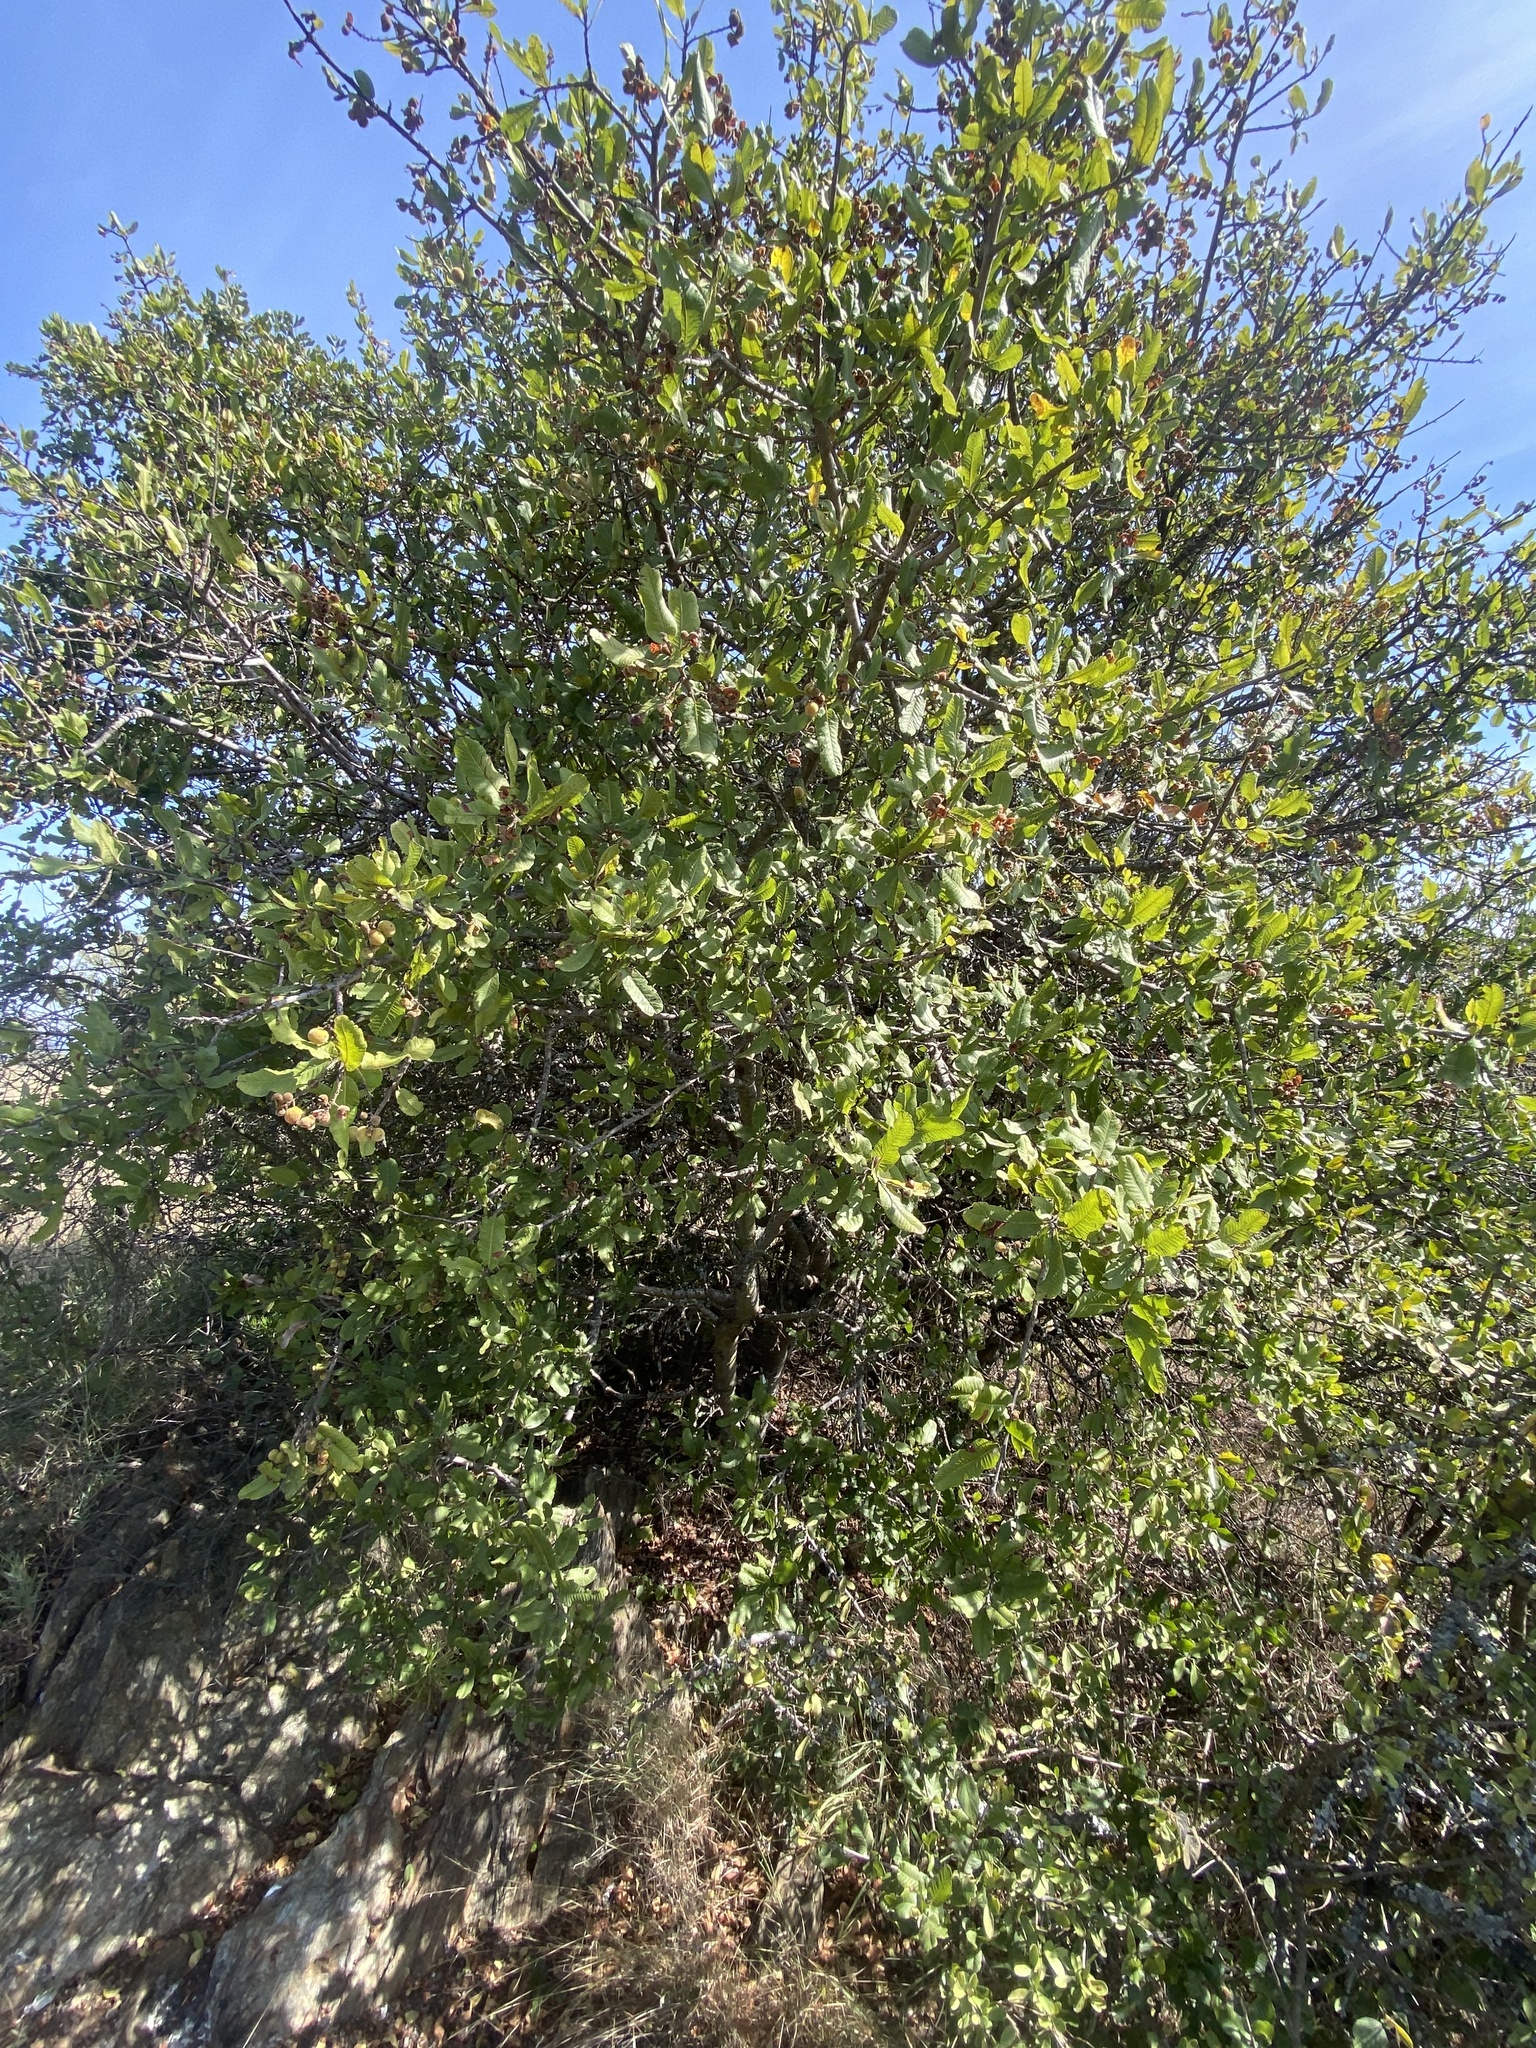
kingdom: Plantae
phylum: Tracheophyta
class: Magnoliopsida
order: Sapindales
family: Sapindaceae
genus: Pappea
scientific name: Pappea capensis
